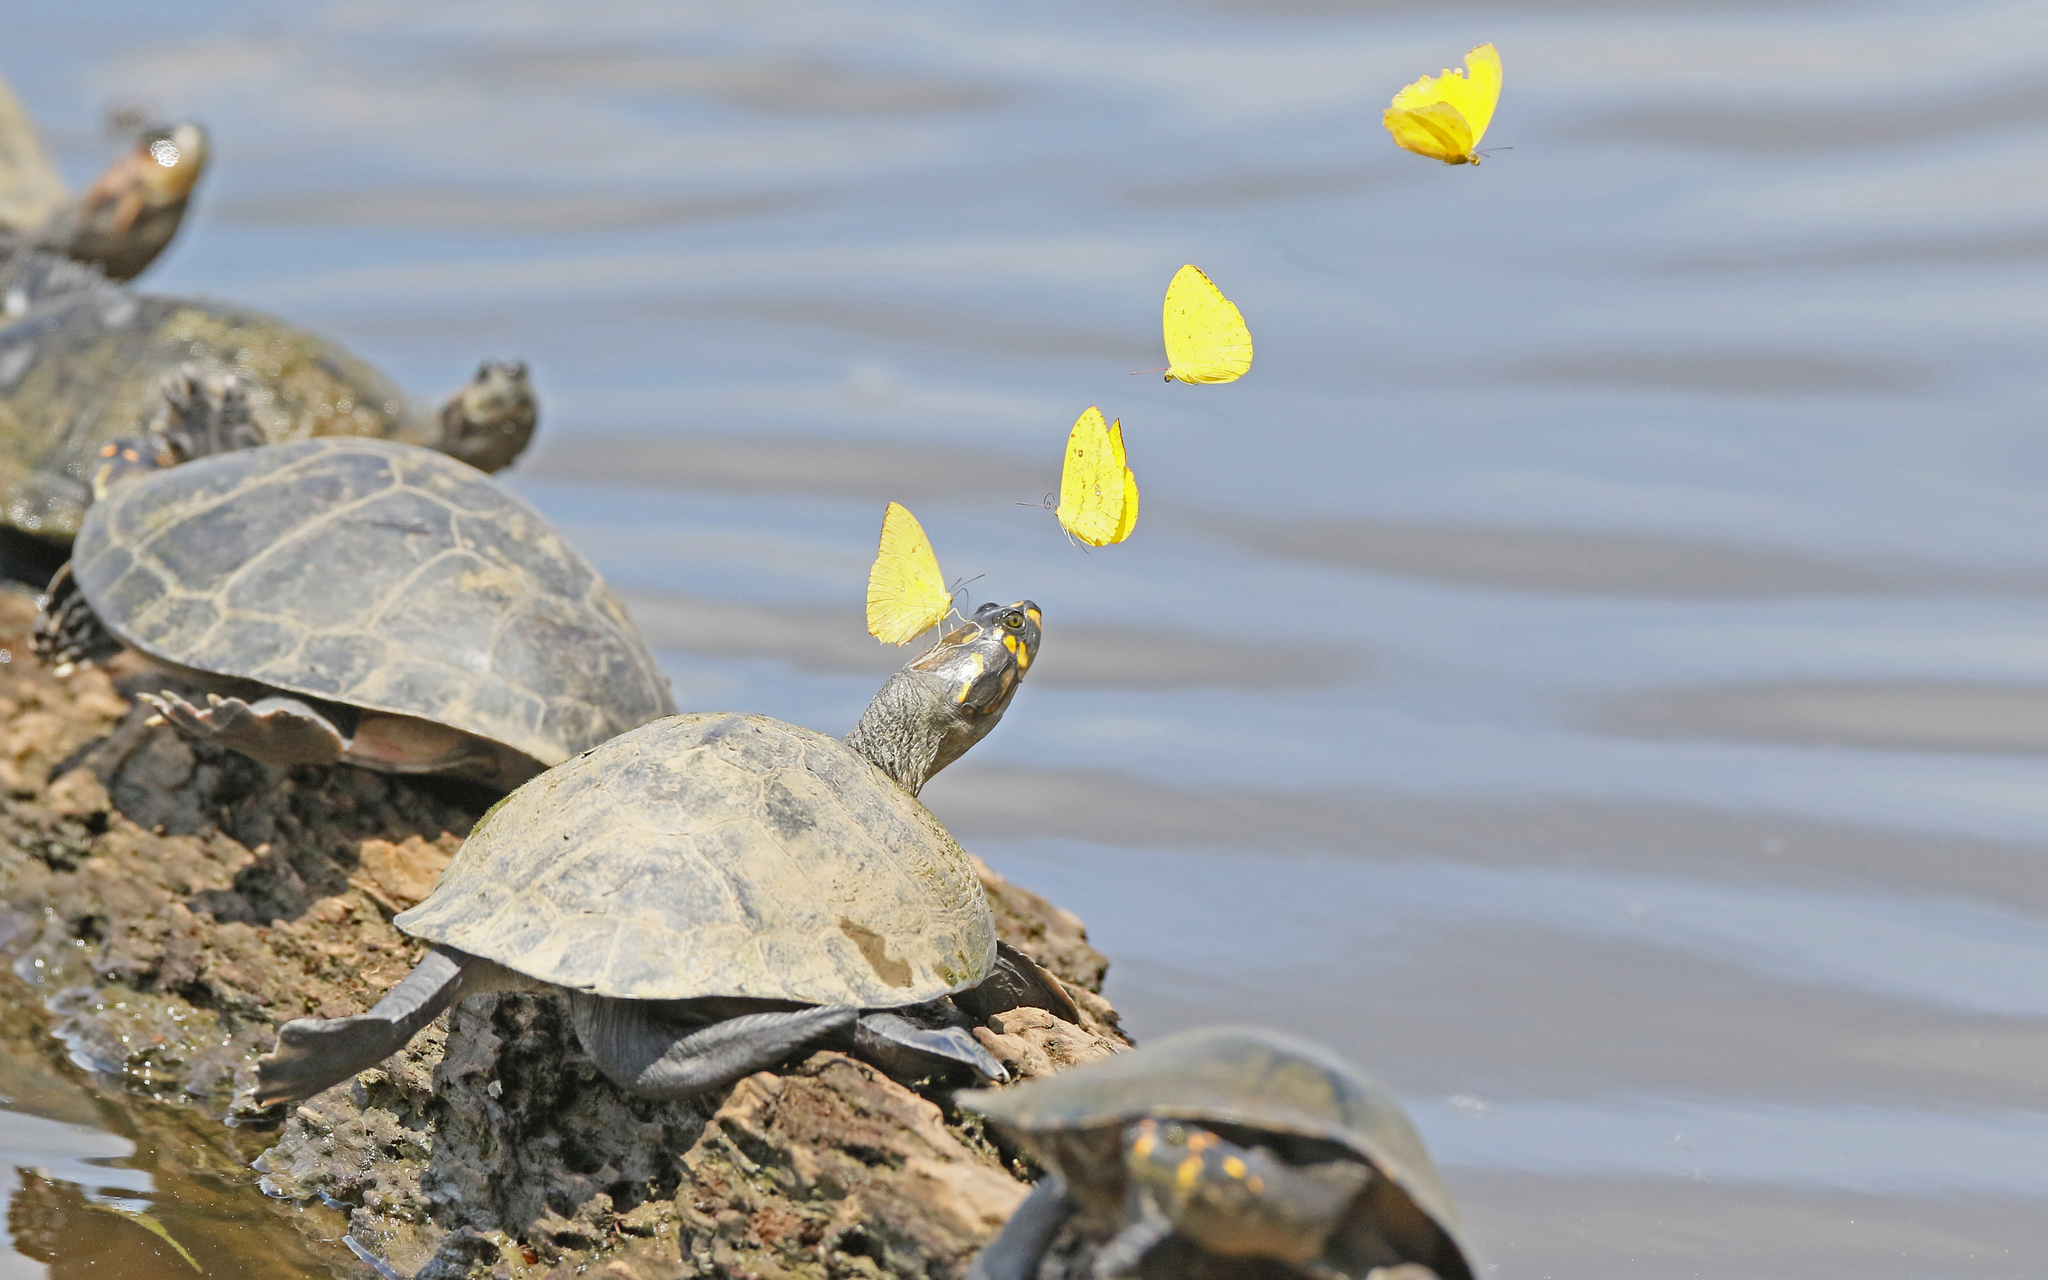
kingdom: Animalia
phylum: Arthropoda
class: Insecta
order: Lepidoptera
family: Pieridae
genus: Phoebis
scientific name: Phoebis argante
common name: Apricot sulphur
